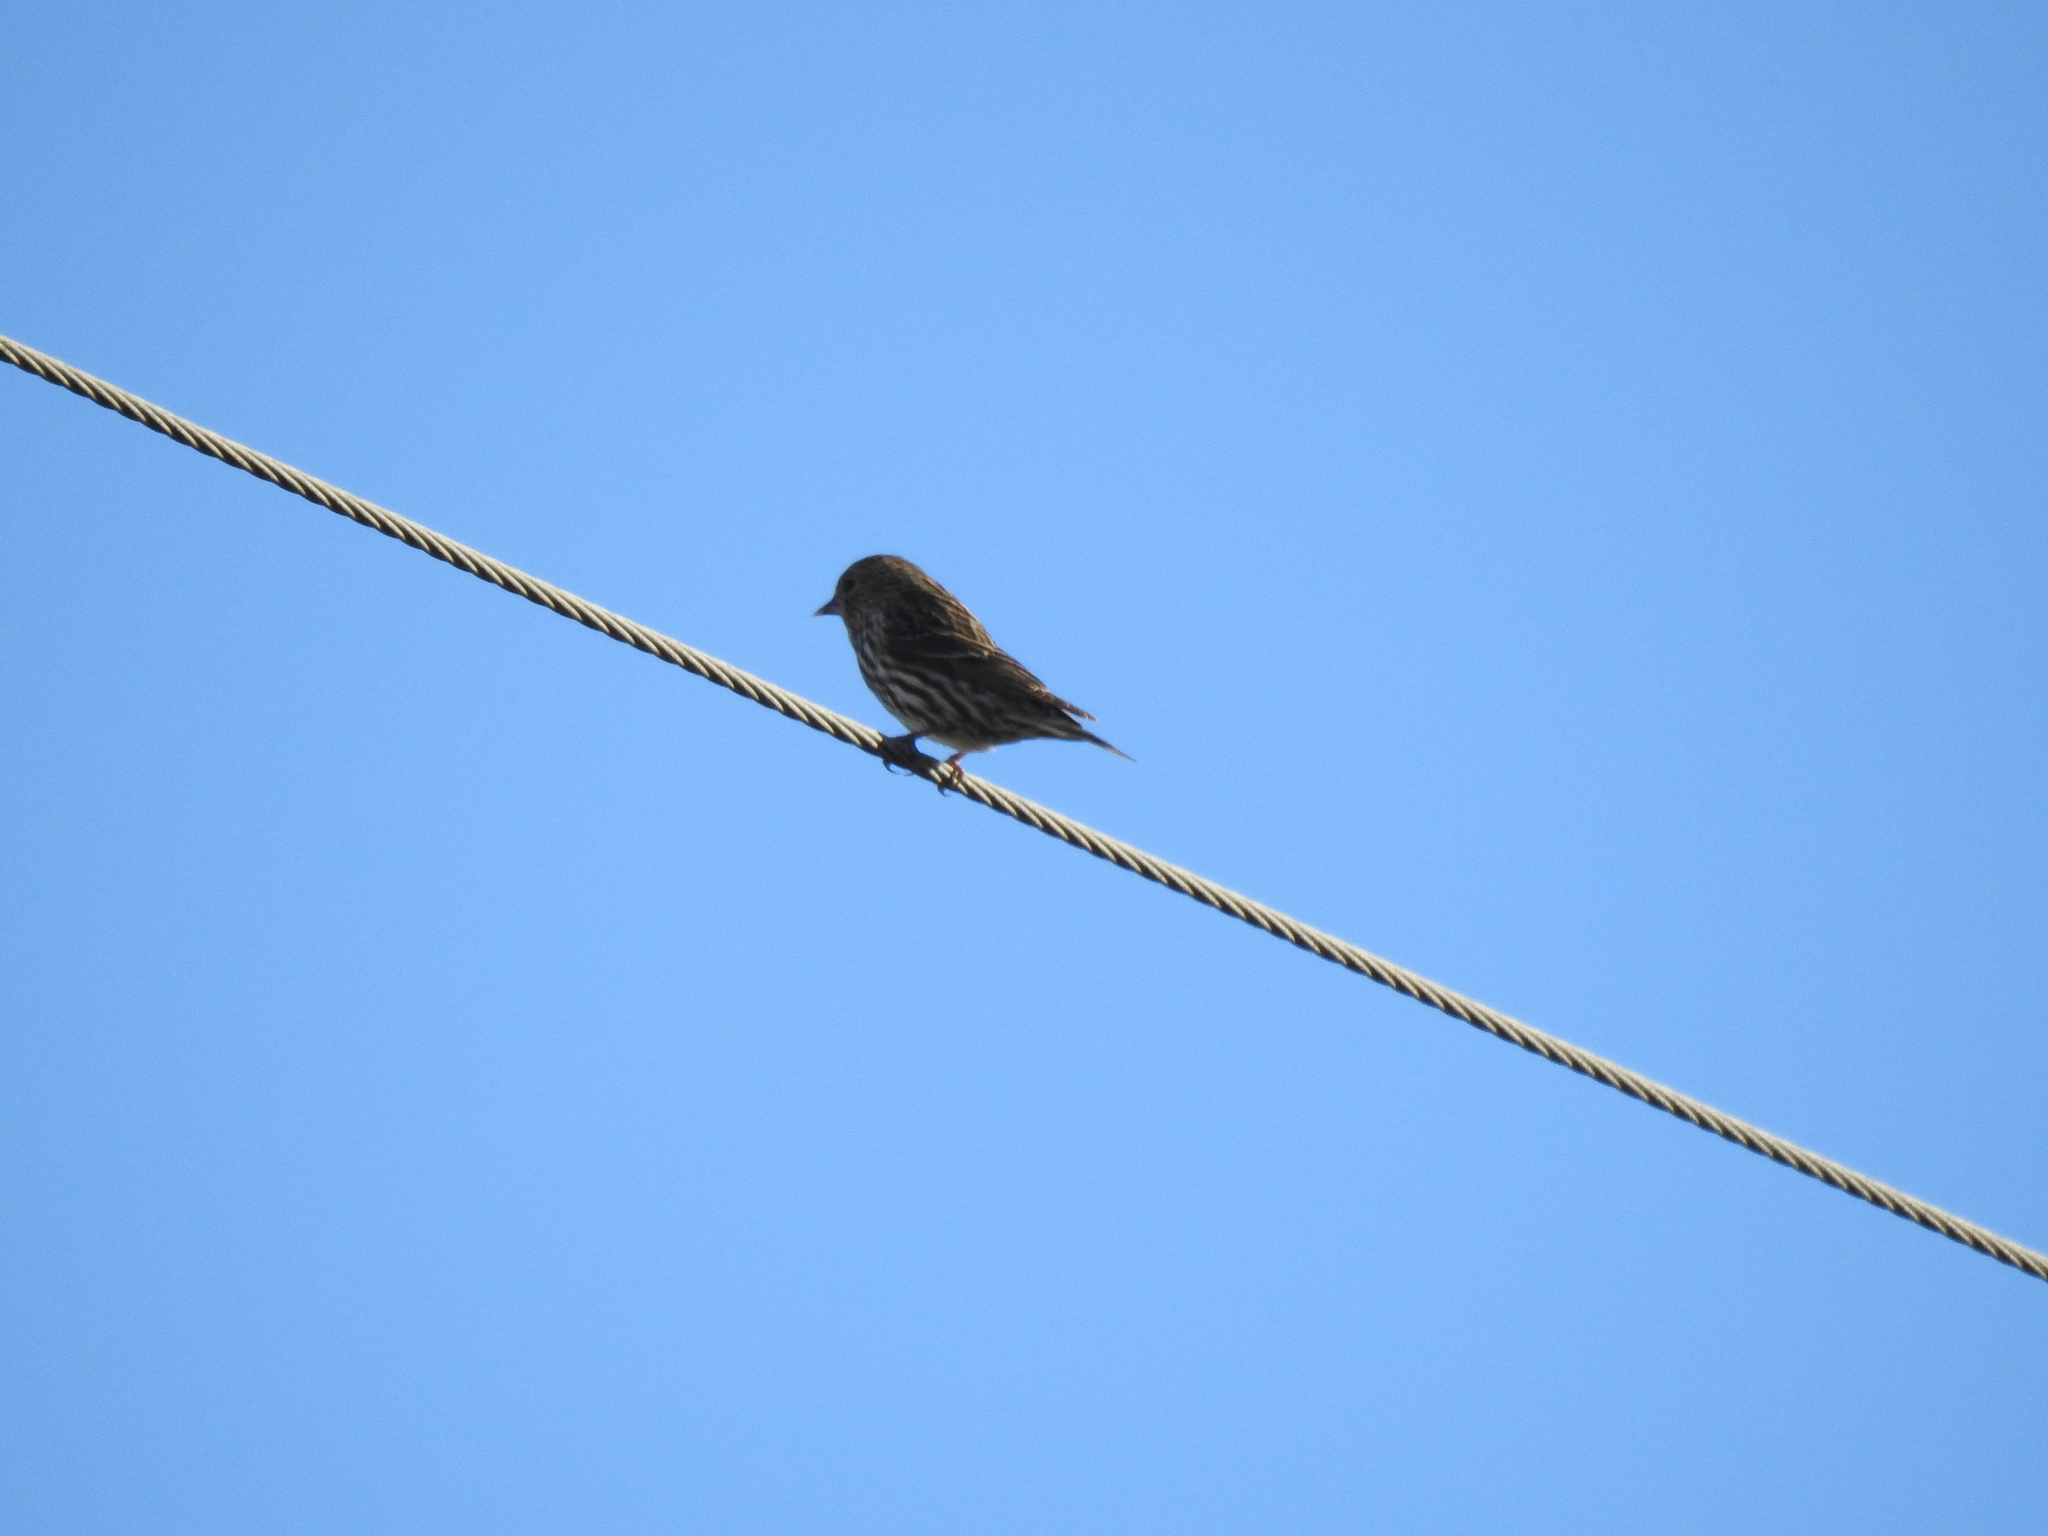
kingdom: Animalia
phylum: Chordata
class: Aves
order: Passeriformes
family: Fringillidae
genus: Spinus
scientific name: Spinus pinus
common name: Pine siskin
